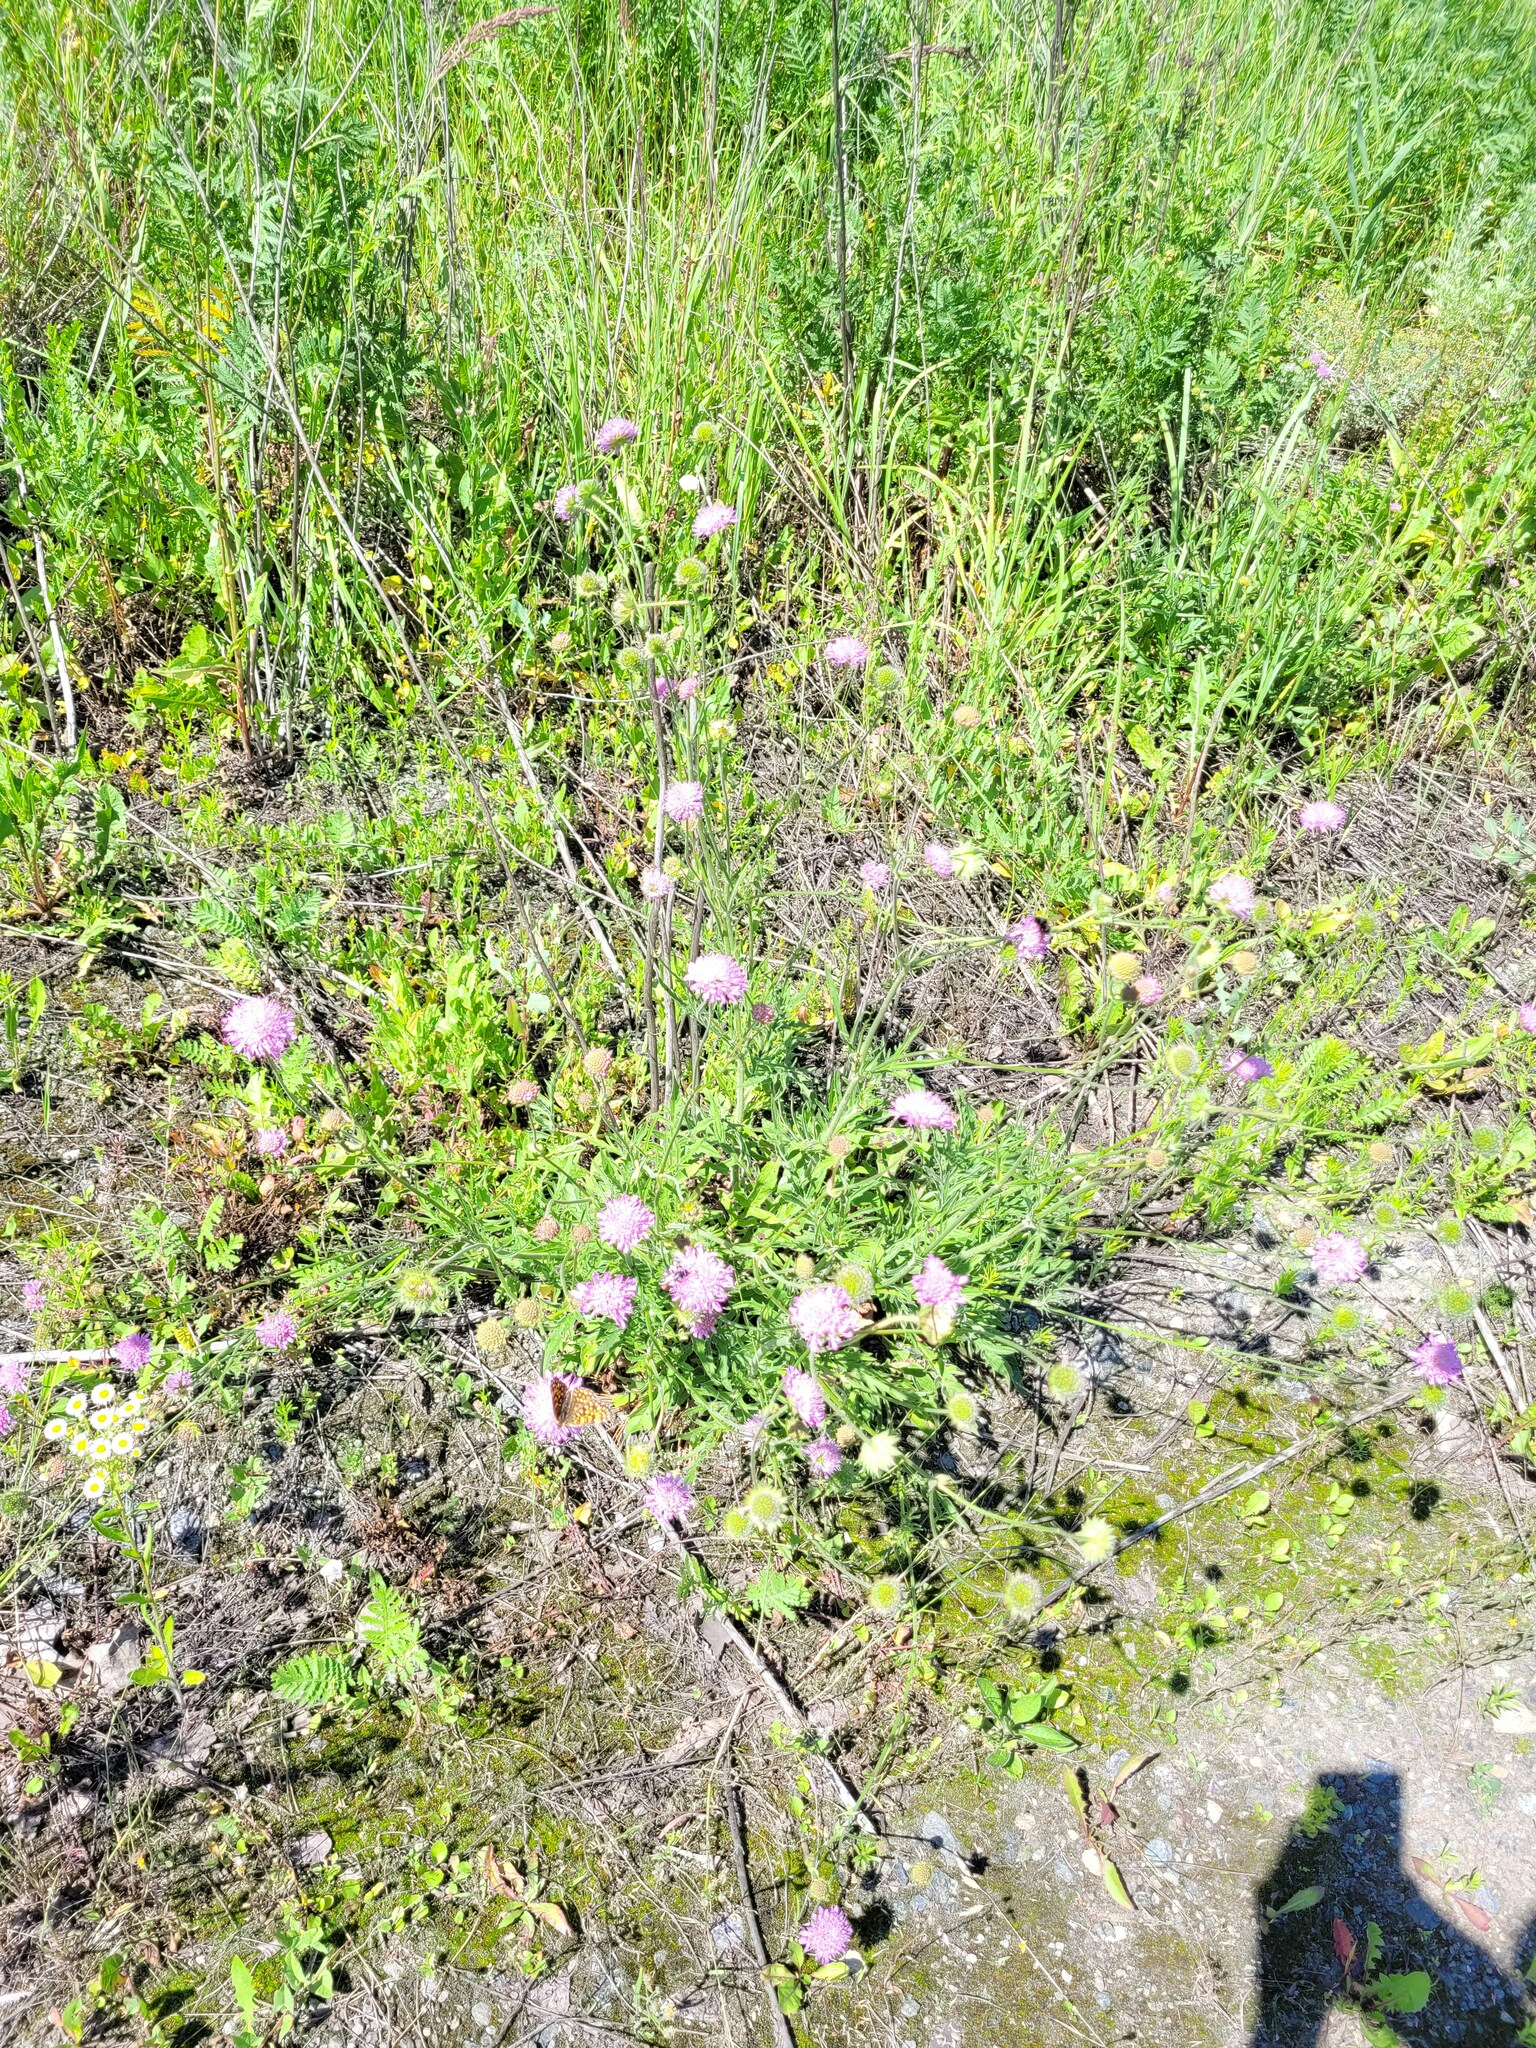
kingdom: Plantae
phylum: Tracheophyta
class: Magnoliopsida
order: Dipsacales
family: Caprifoliaceae
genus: Knautia
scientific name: Knautia arvensis
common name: Field scabiosa
